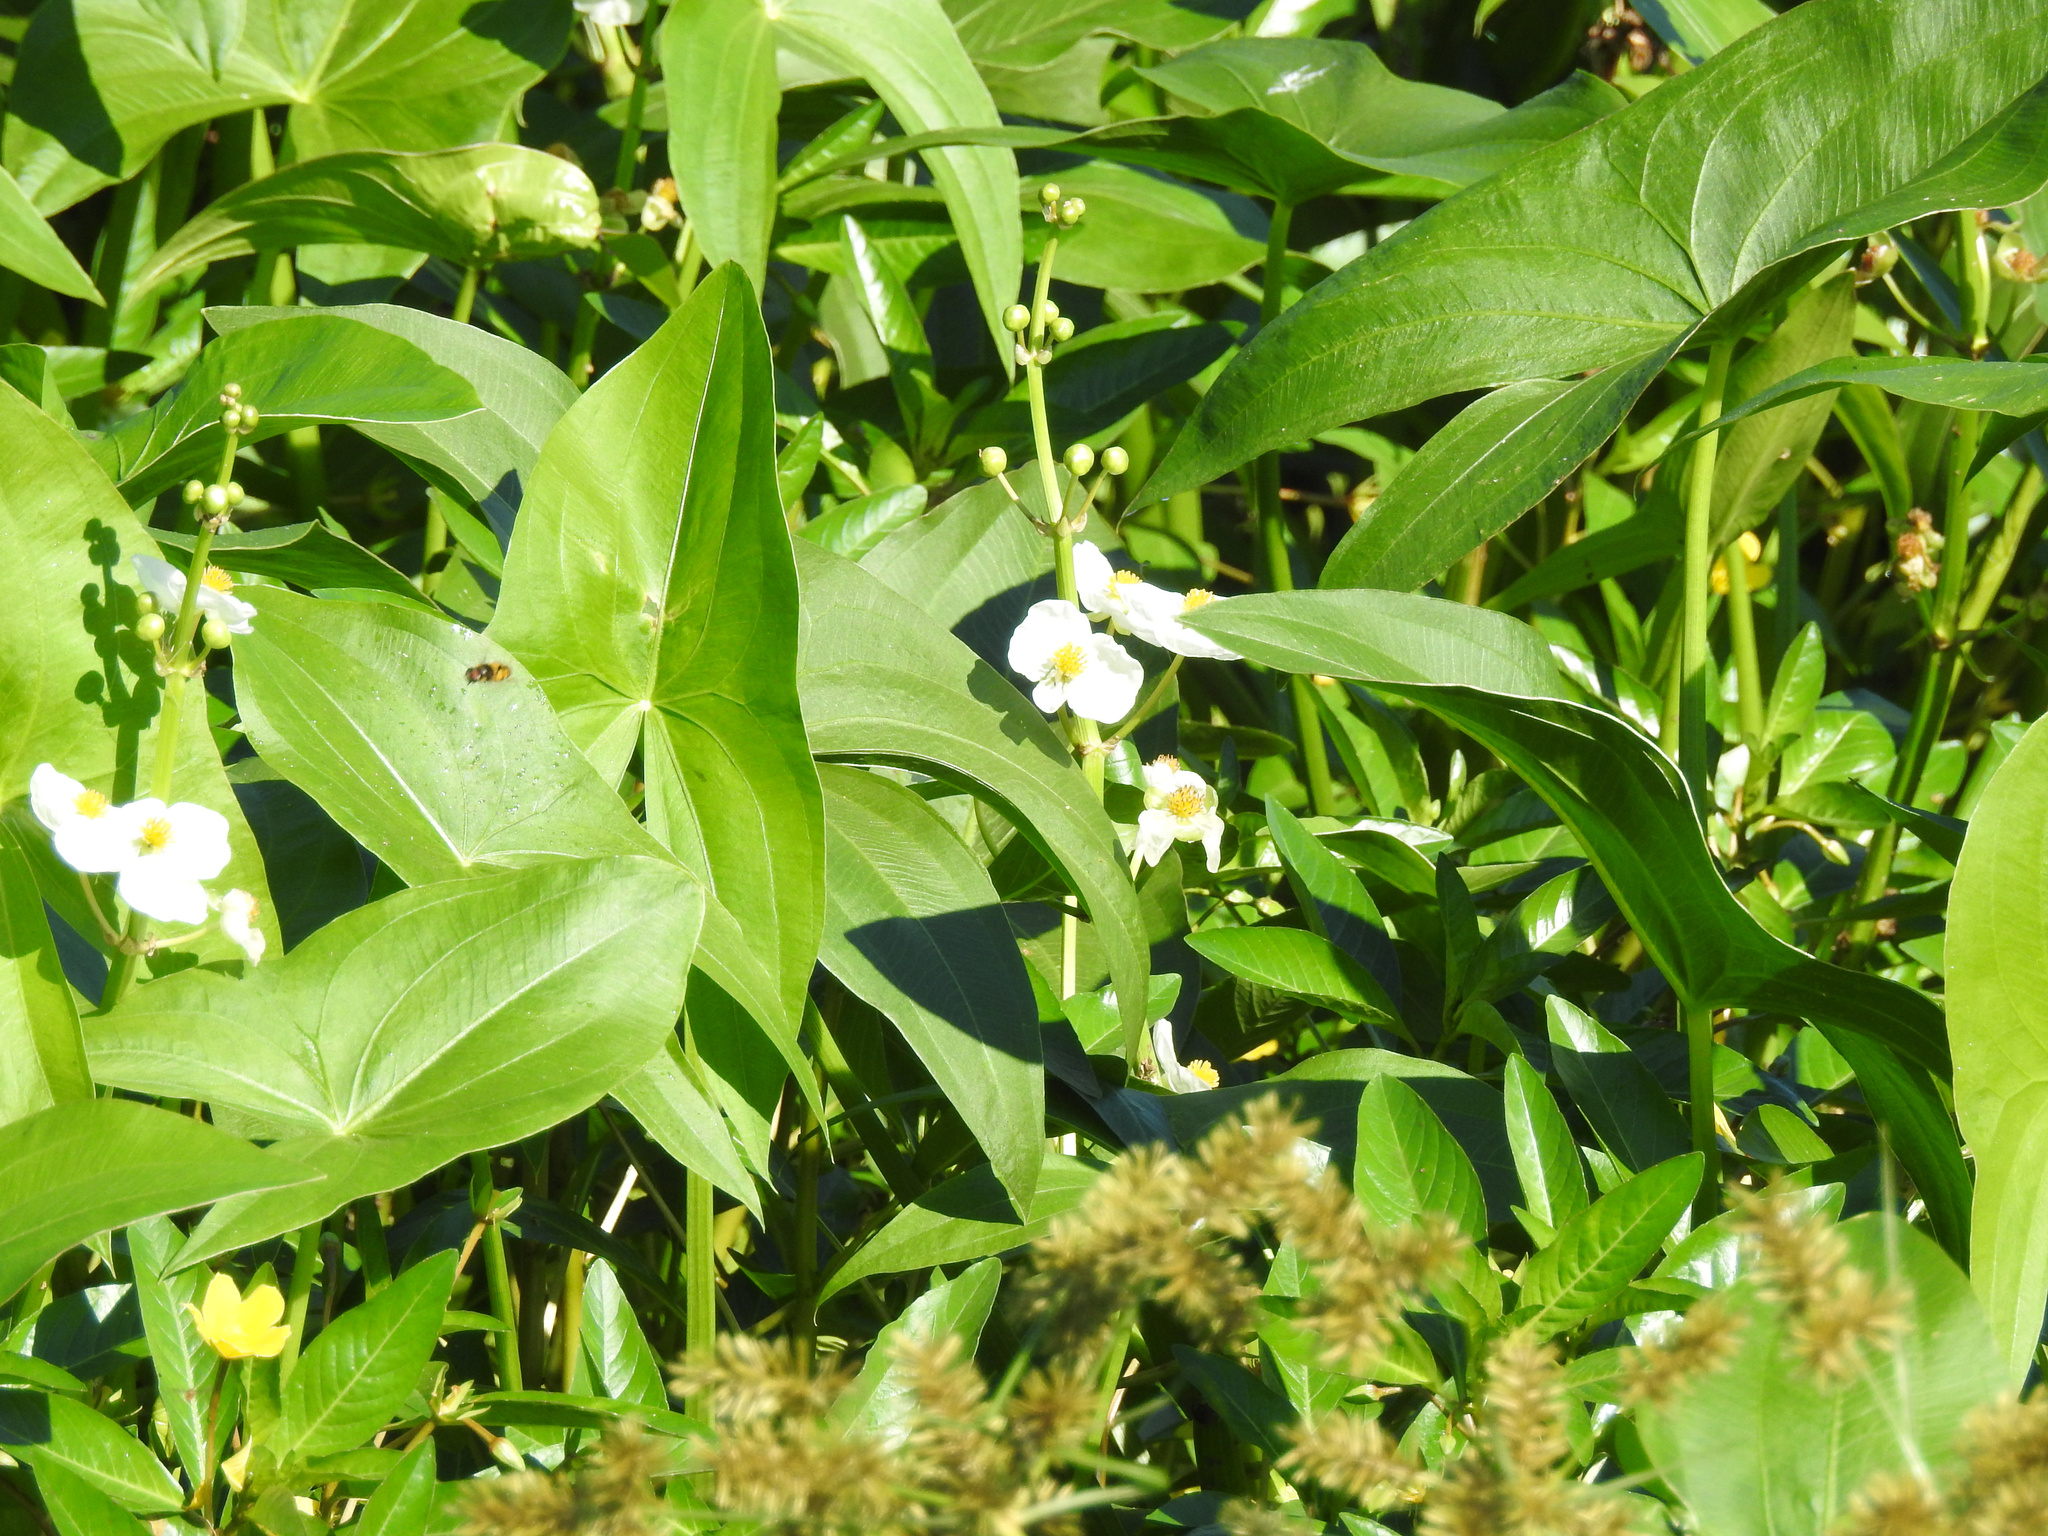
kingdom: Plantae
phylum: Tracheophyta
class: Liliopsida
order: Alismatales
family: Alismataceae
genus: Sagittaria
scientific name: Sagittaria latifolia
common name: Duck-potato
